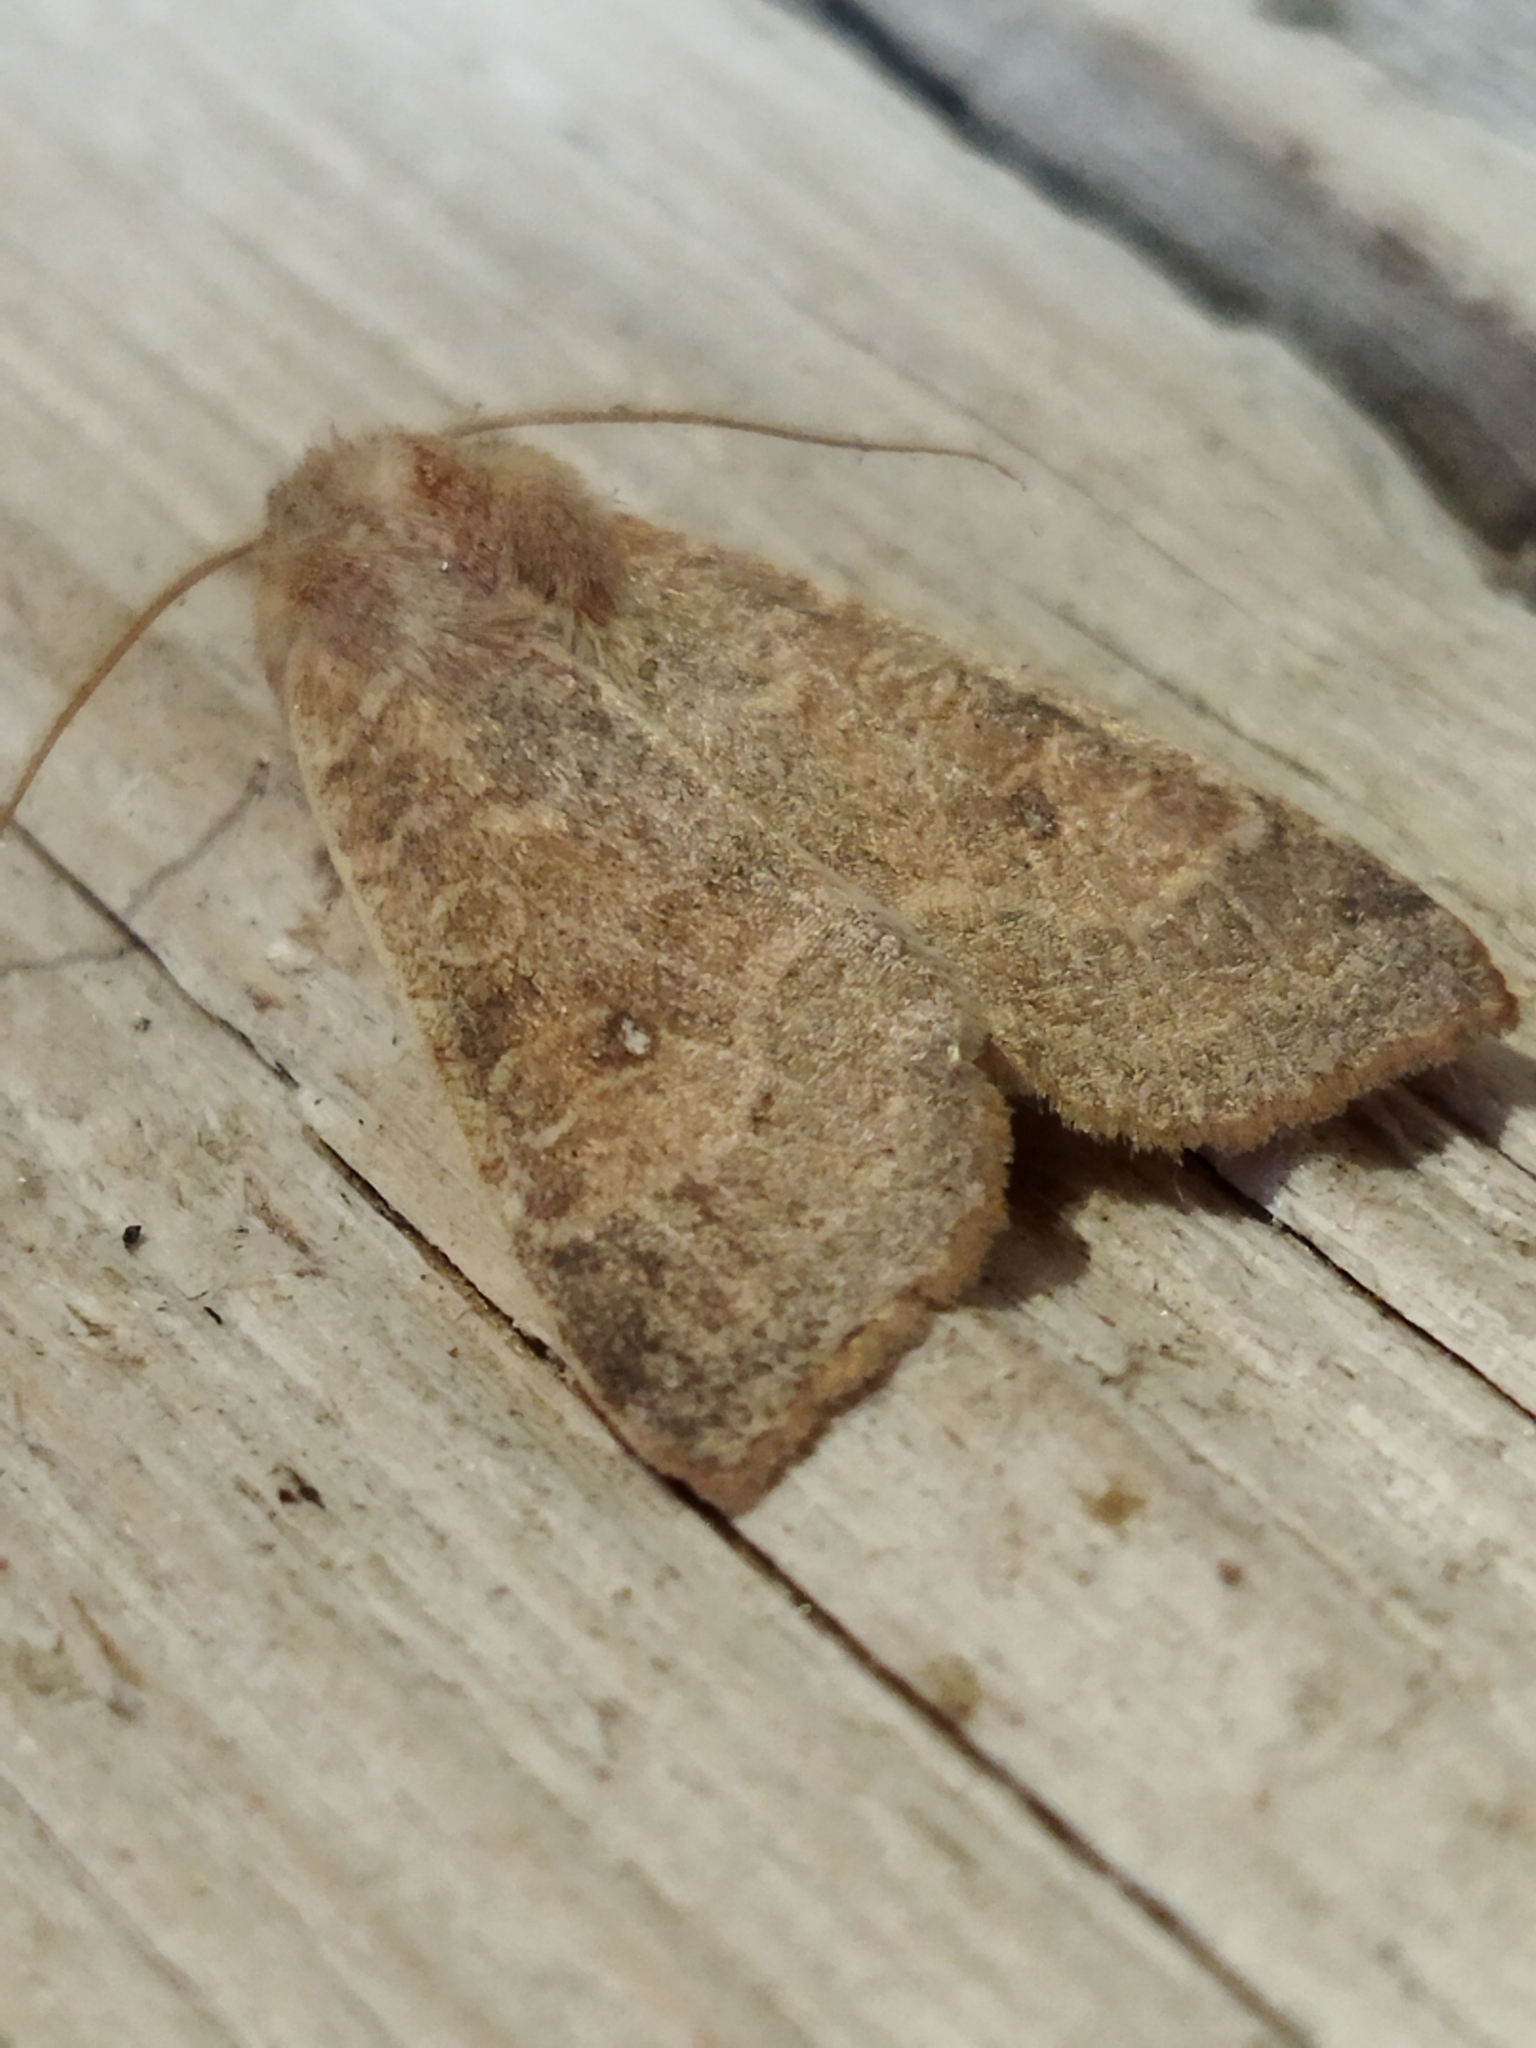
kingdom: Animalia
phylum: Arthropoda
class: Insecta
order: Lepidoptera
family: Noctuidae
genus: Xanthia
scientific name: Xanthia ocellaris
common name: Pale-lemon sallow
